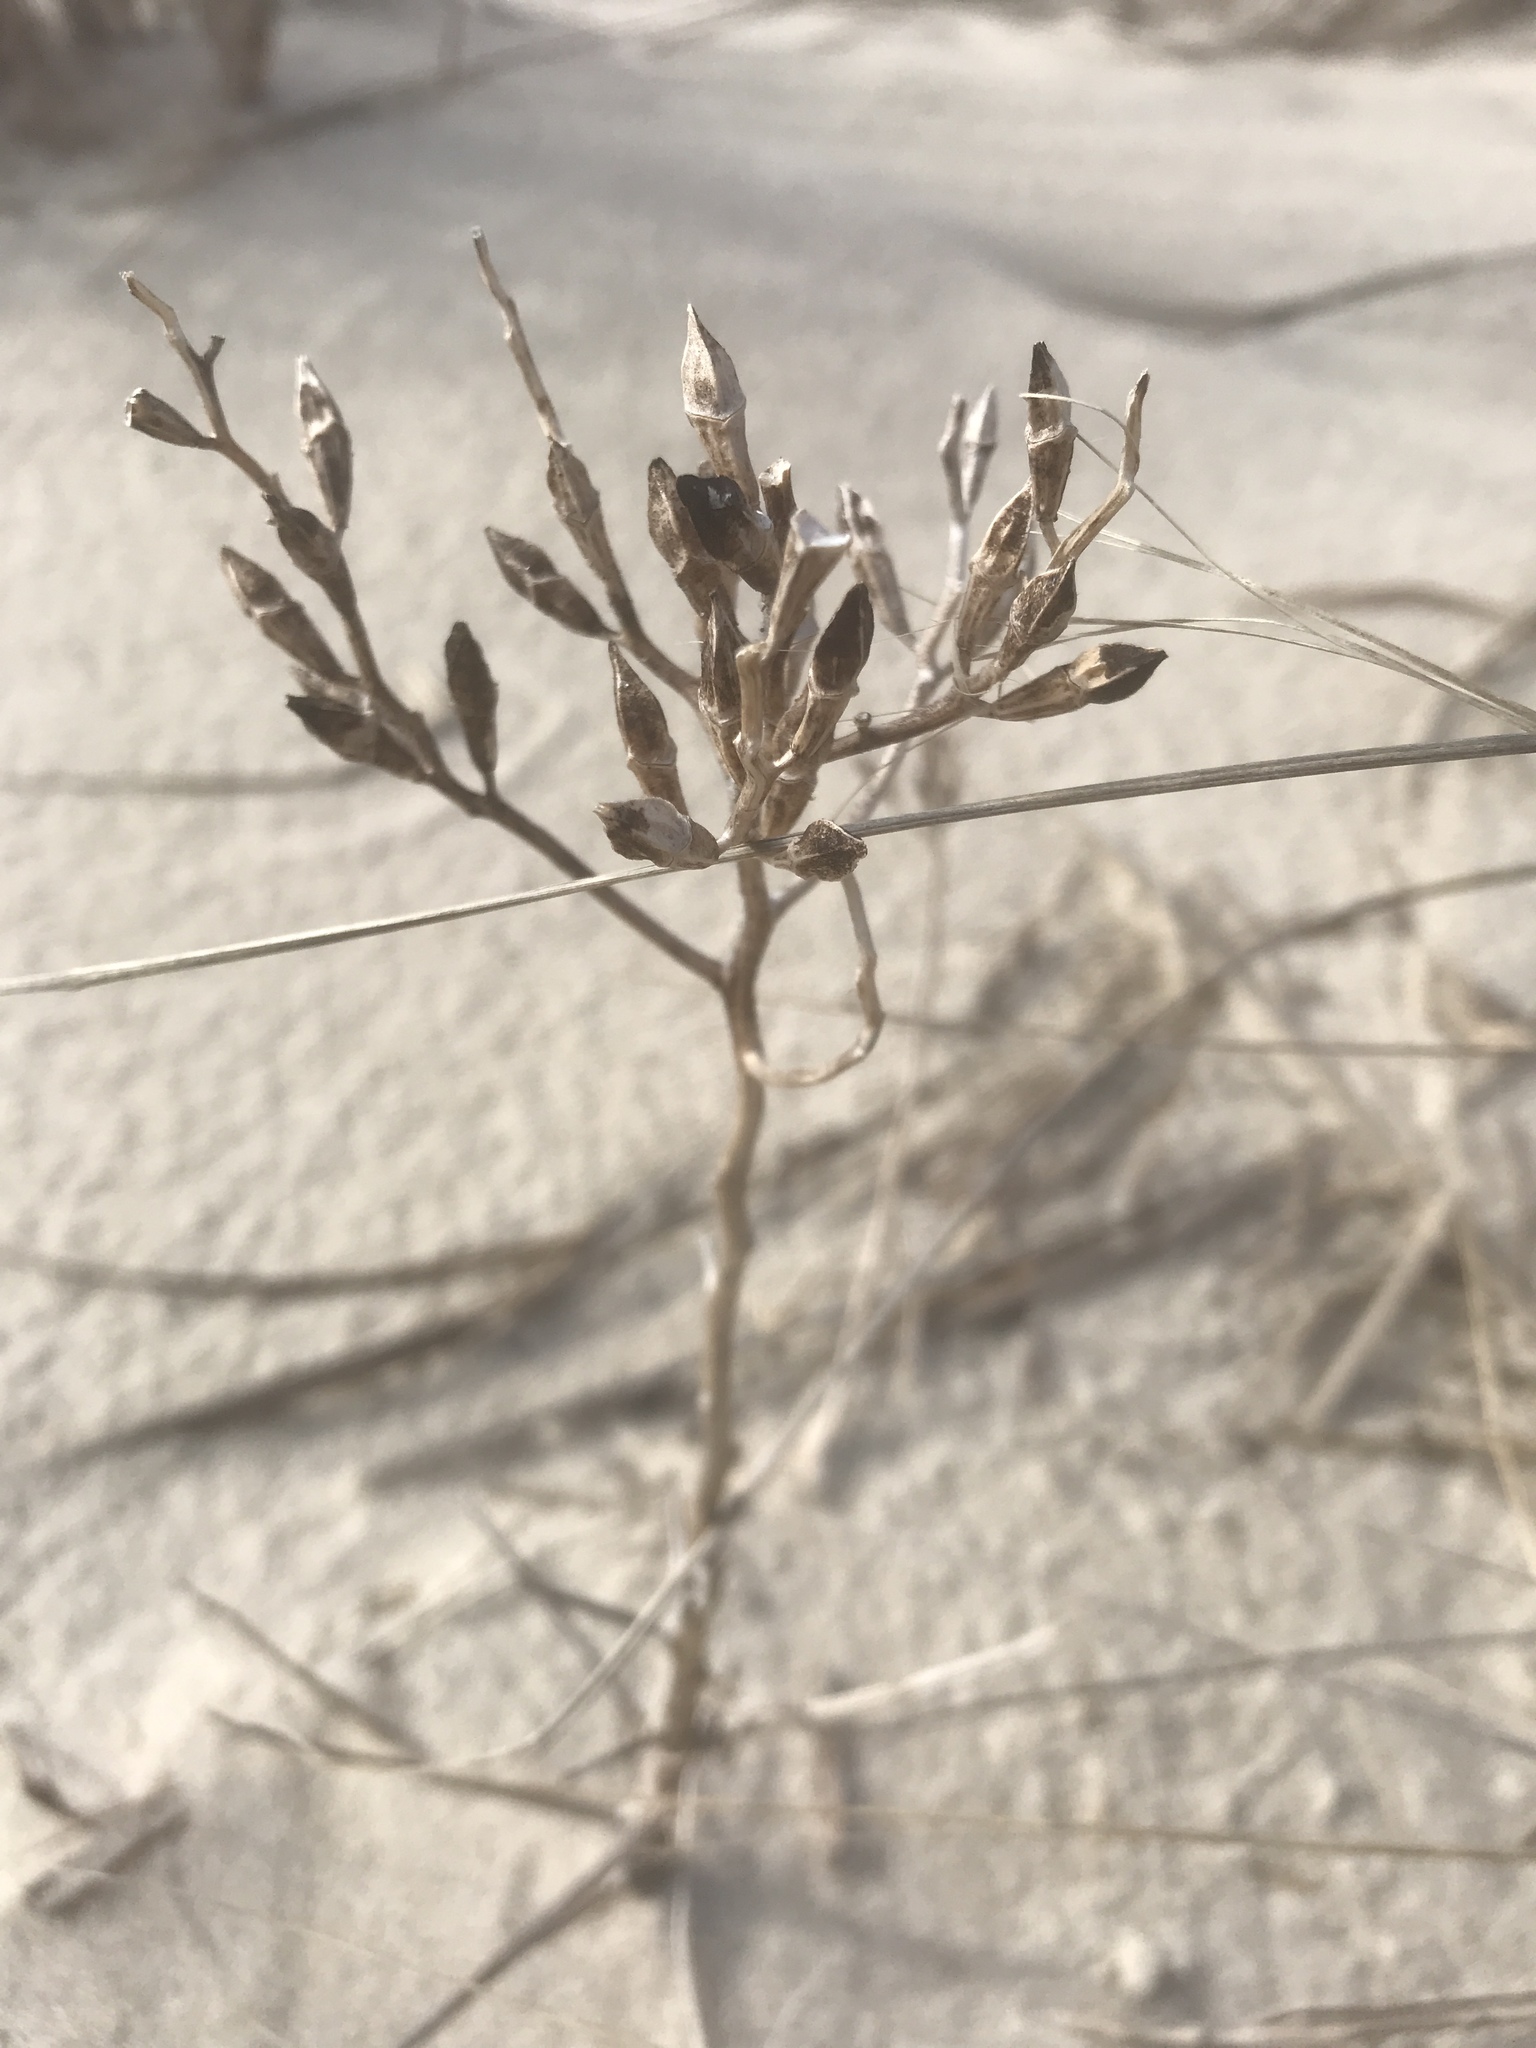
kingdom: Plantae
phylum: Tracheophyta
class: Magnoliopsida
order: Brassicales
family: Brassicaceae
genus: Cakile
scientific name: Cakile edentula
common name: American sea rocket
